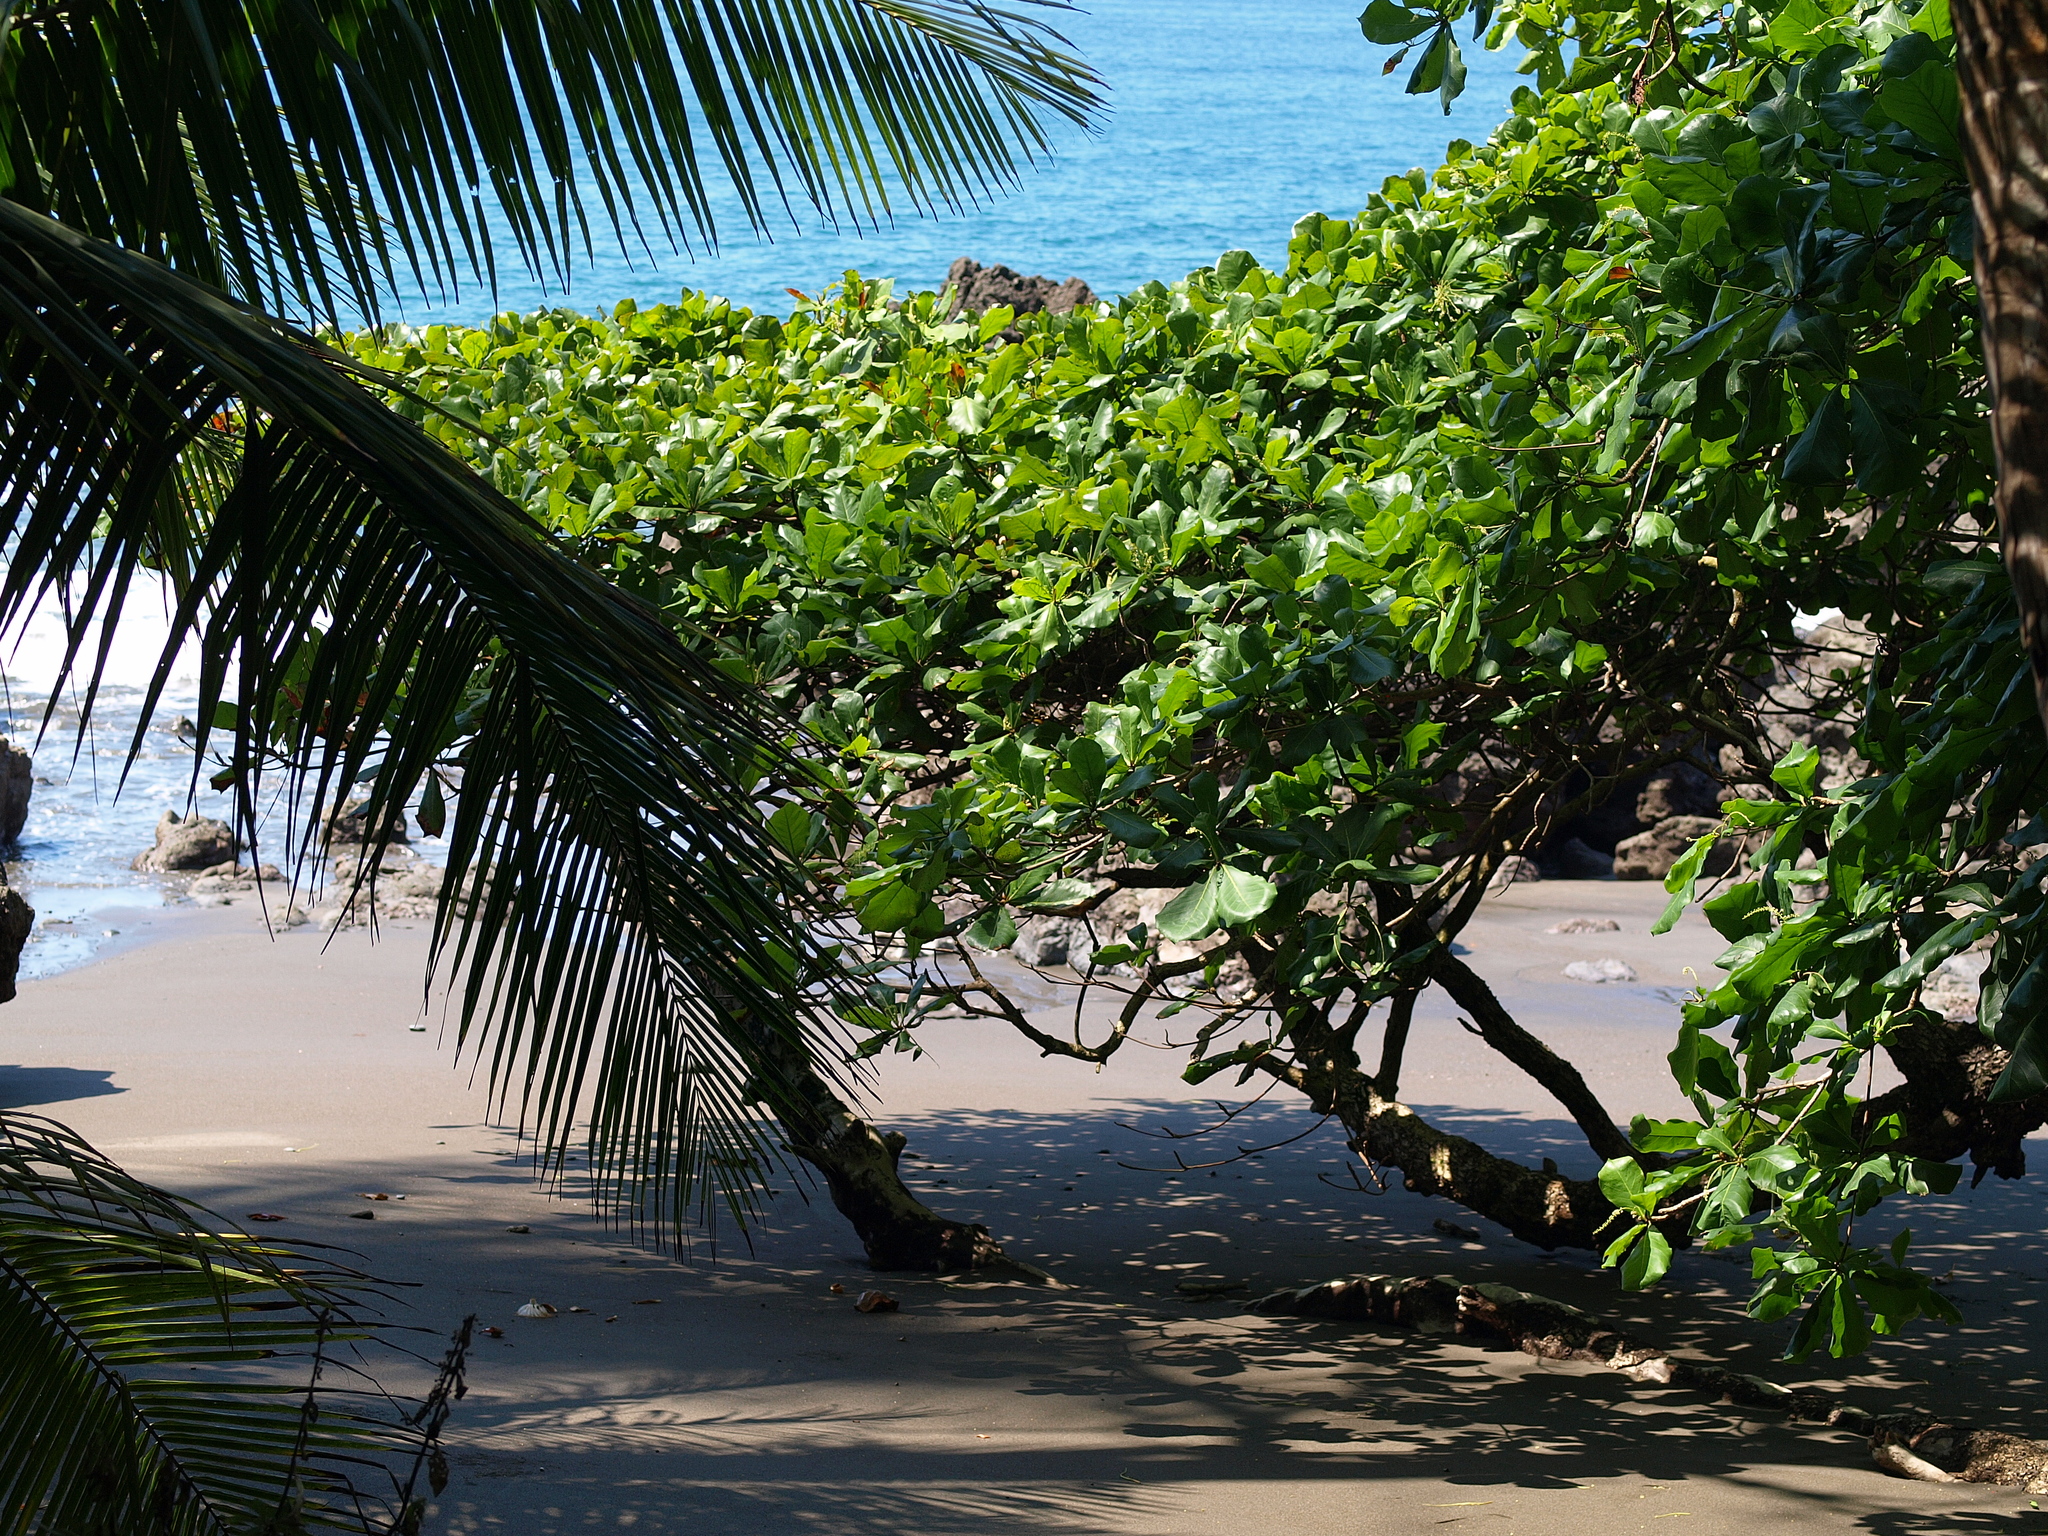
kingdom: Plantae
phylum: Tracheophyta
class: Magnoliopsida
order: Myrtales
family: Combretaceae
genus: Terminalia
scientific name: Terminalia catappa
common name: Tropical almond
